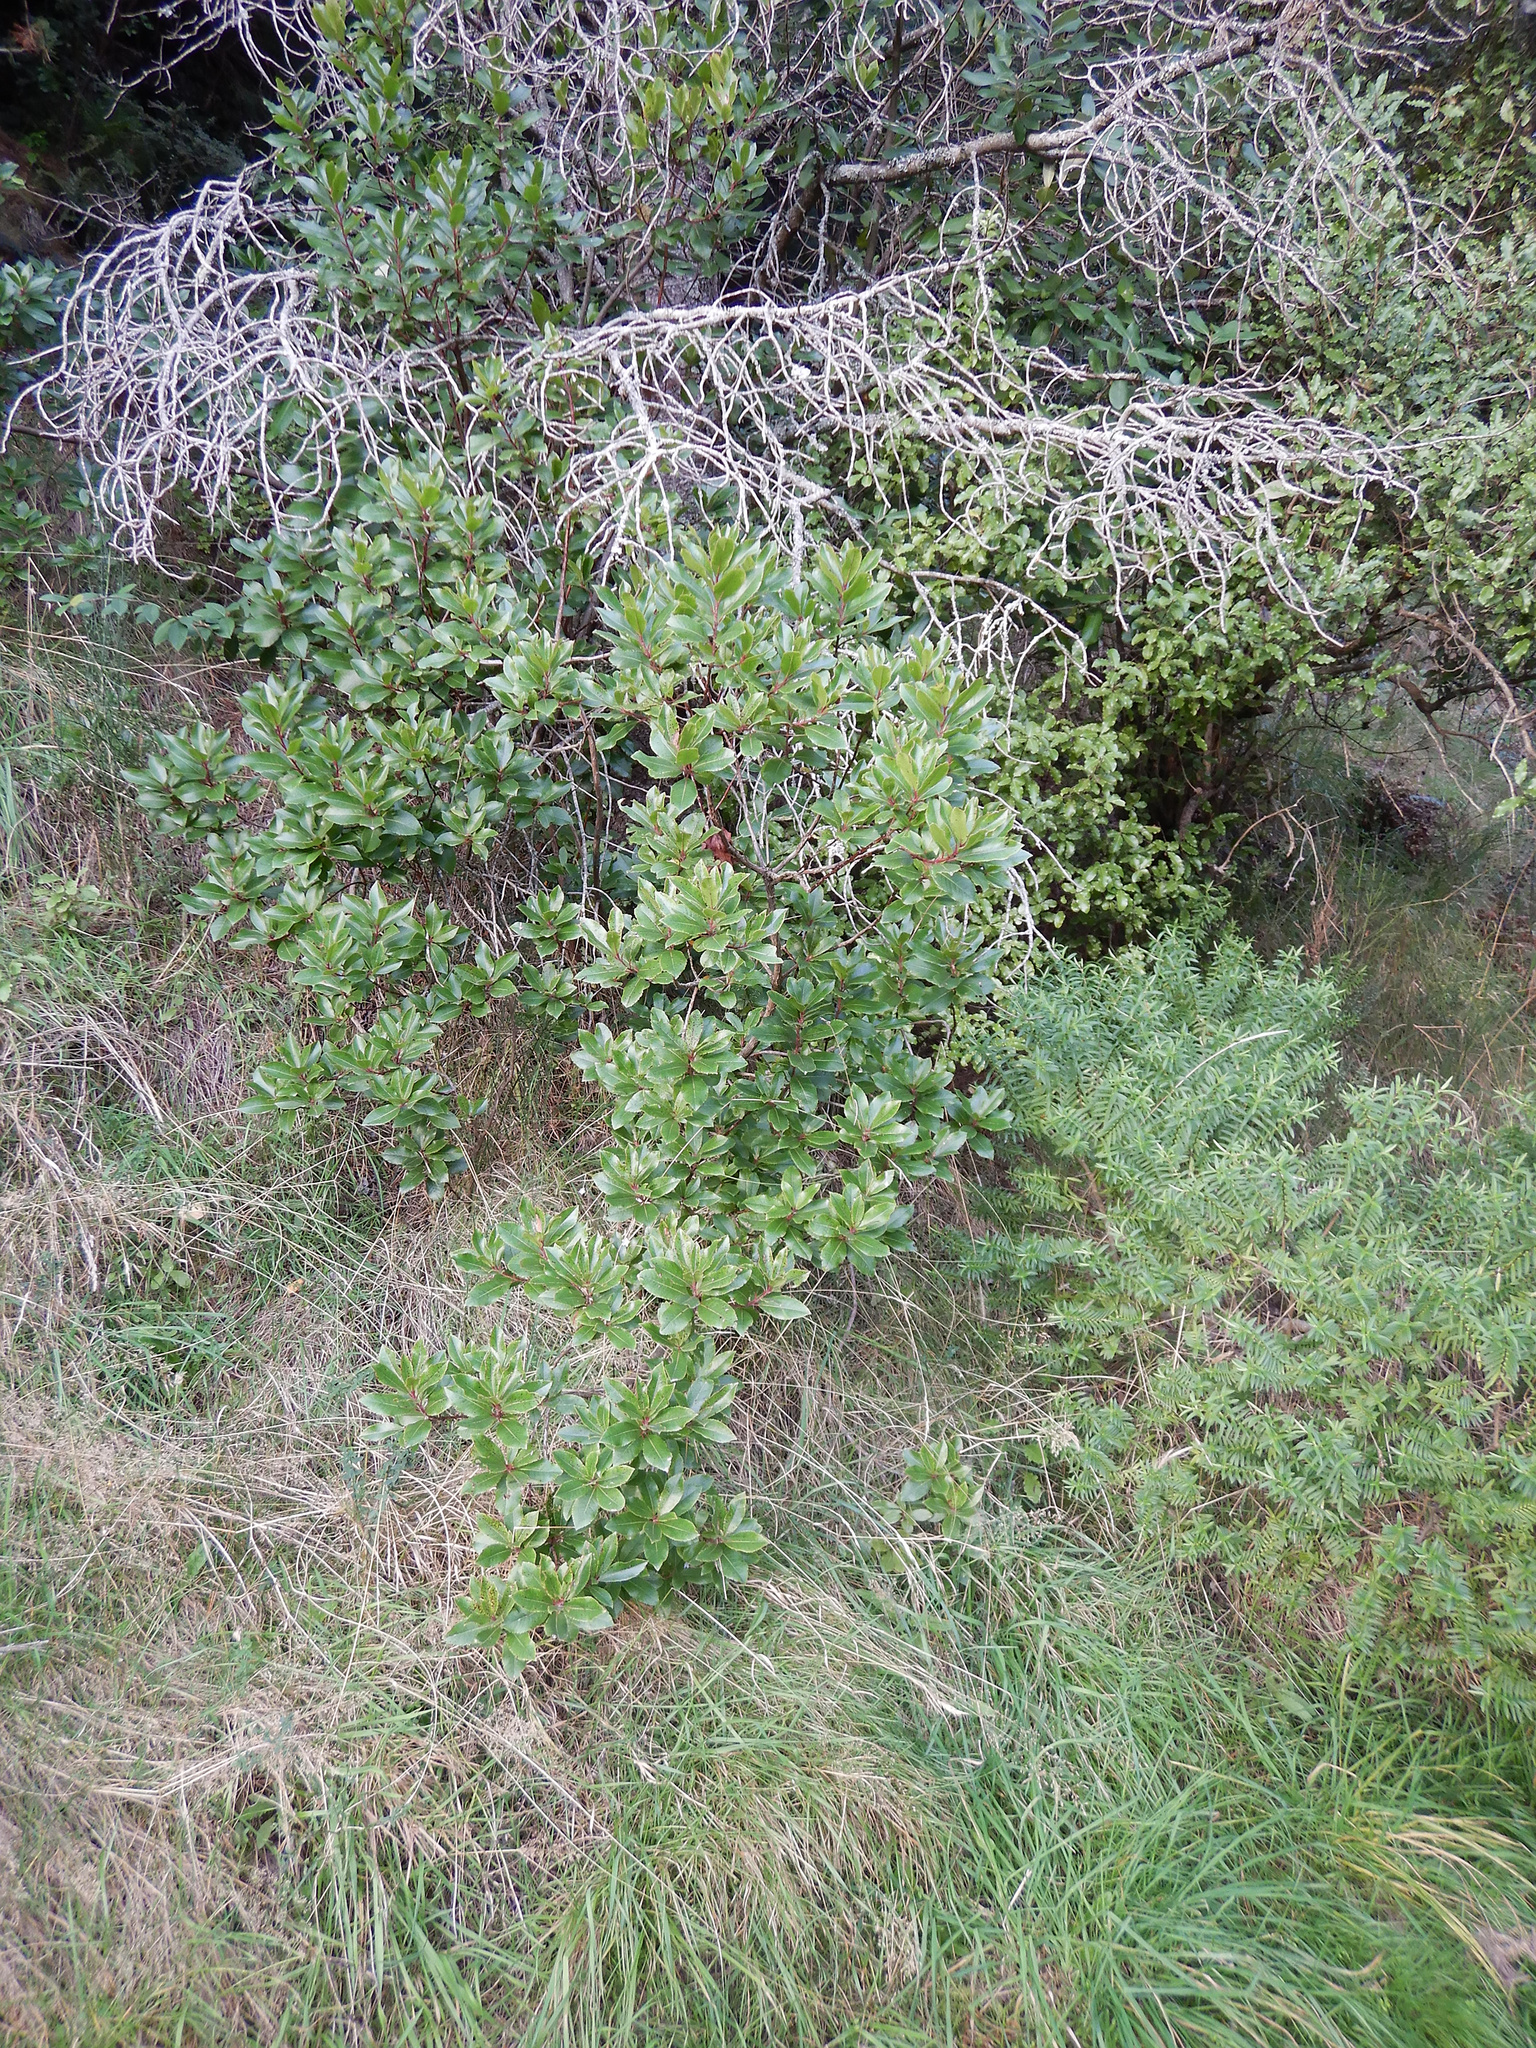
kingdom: Plantae
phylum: Tracheophyta
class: Magnoliopsida
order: Ericales
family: Ericaceae
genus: Arbutus
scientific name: Arbutus unedo
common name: Strawberry-tree
